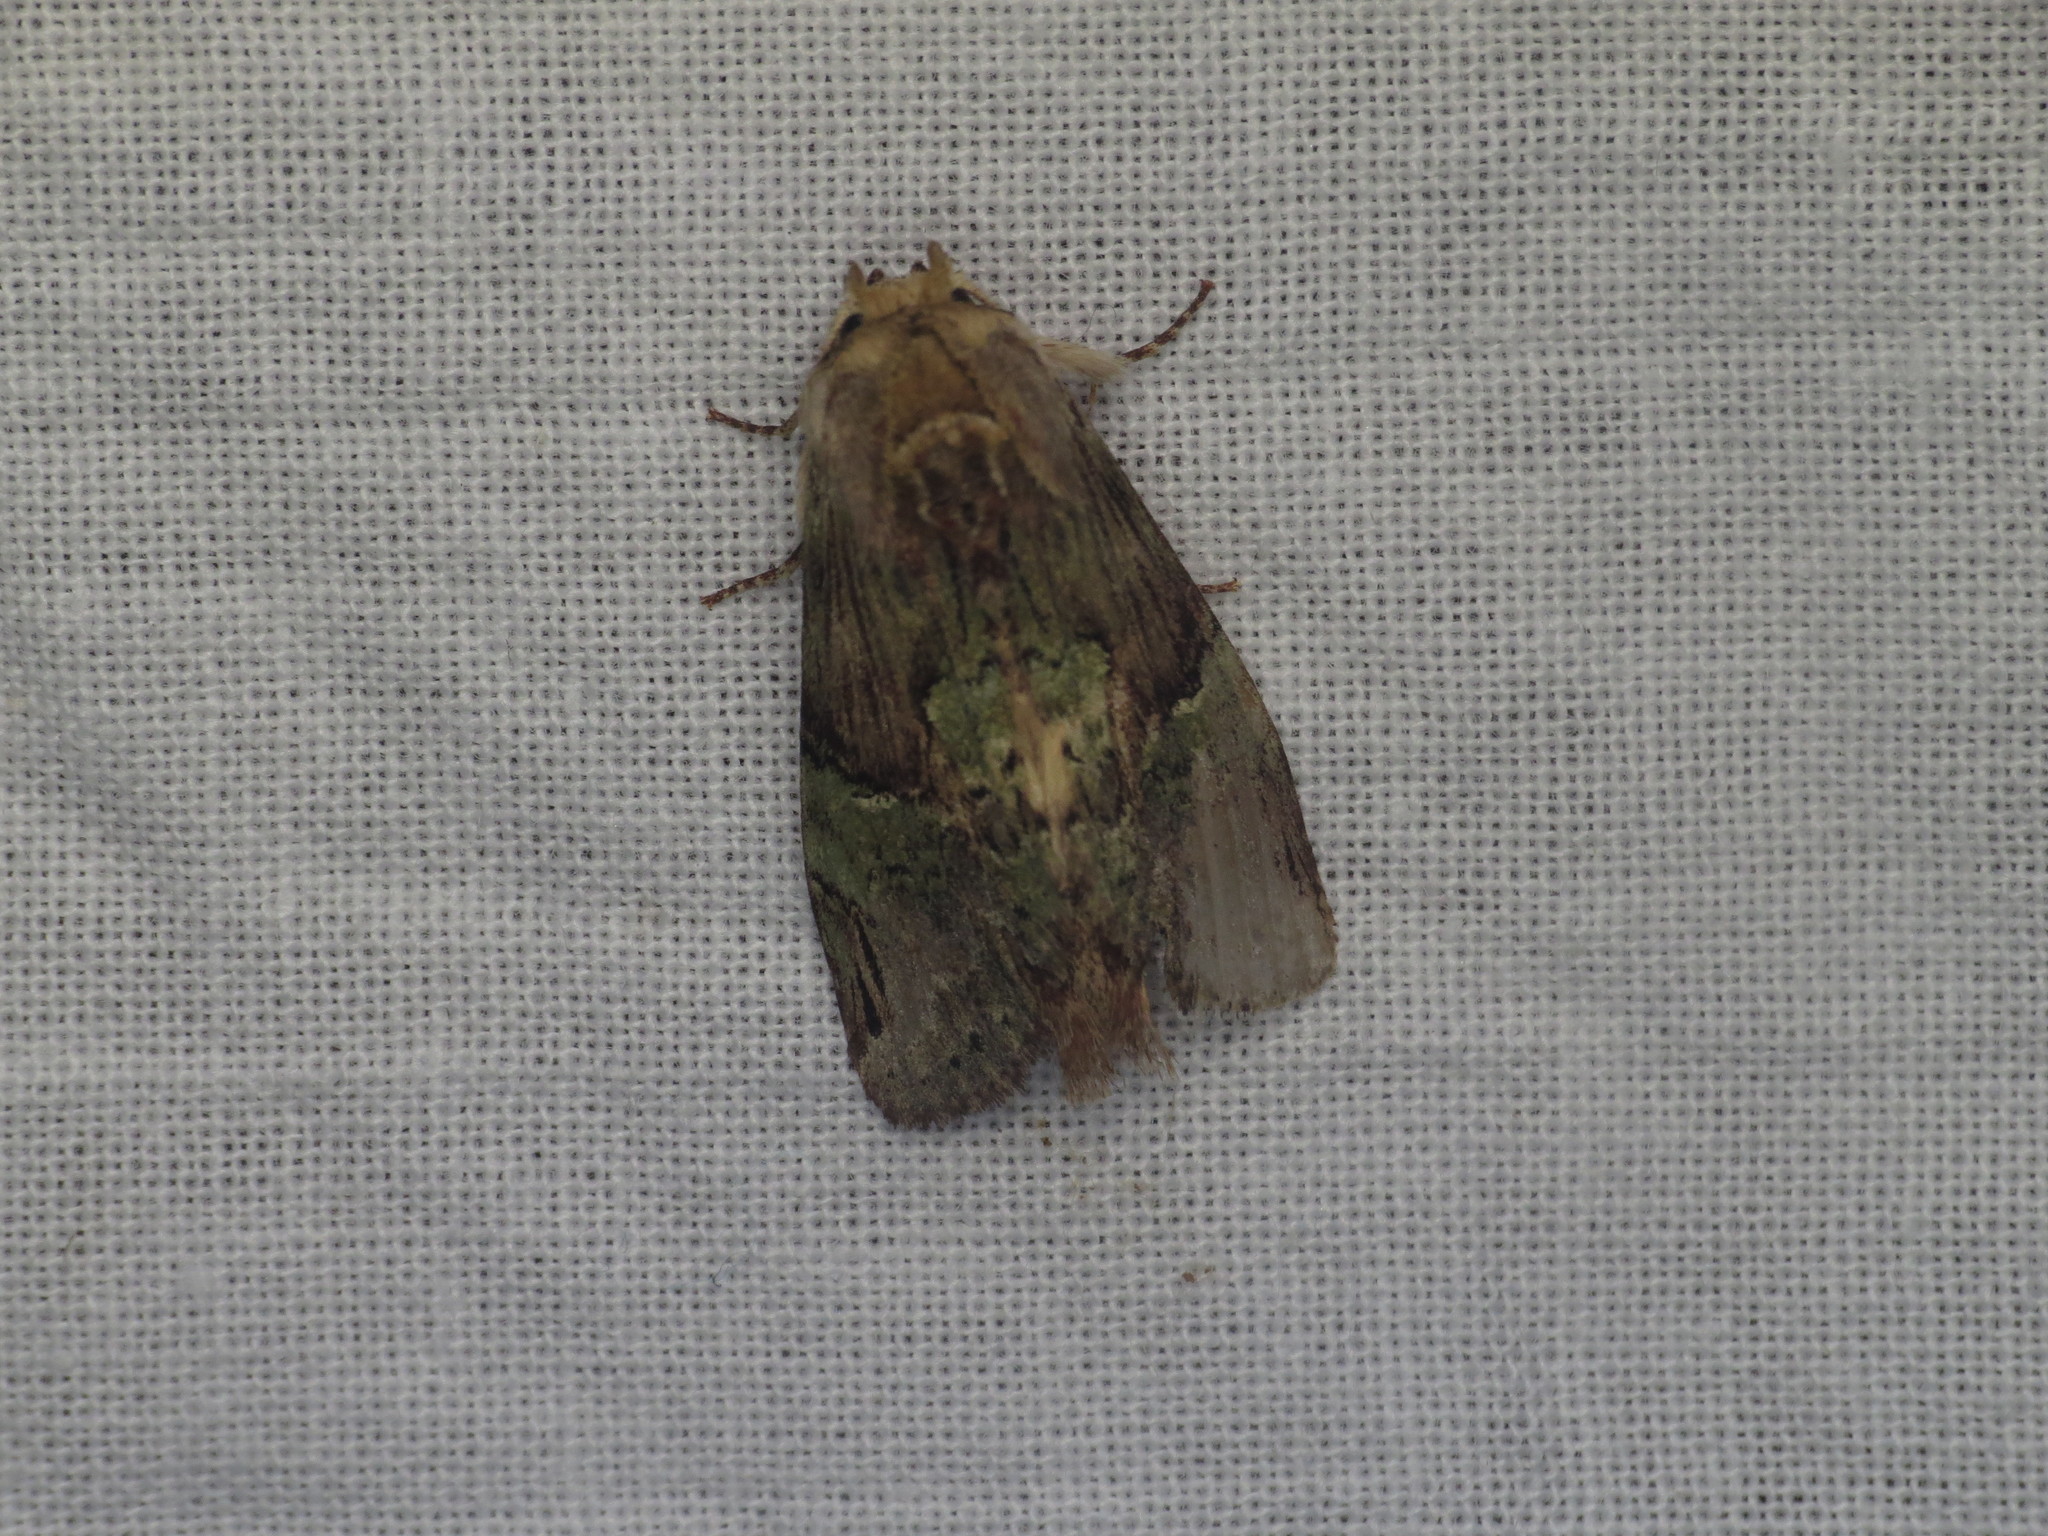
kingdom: Animalia
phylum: Arthropoda
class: Insecta
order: Lepidoptera
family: Notodontidae
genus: Chadisra
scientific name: Chadisra Antithemerastis acrobela
